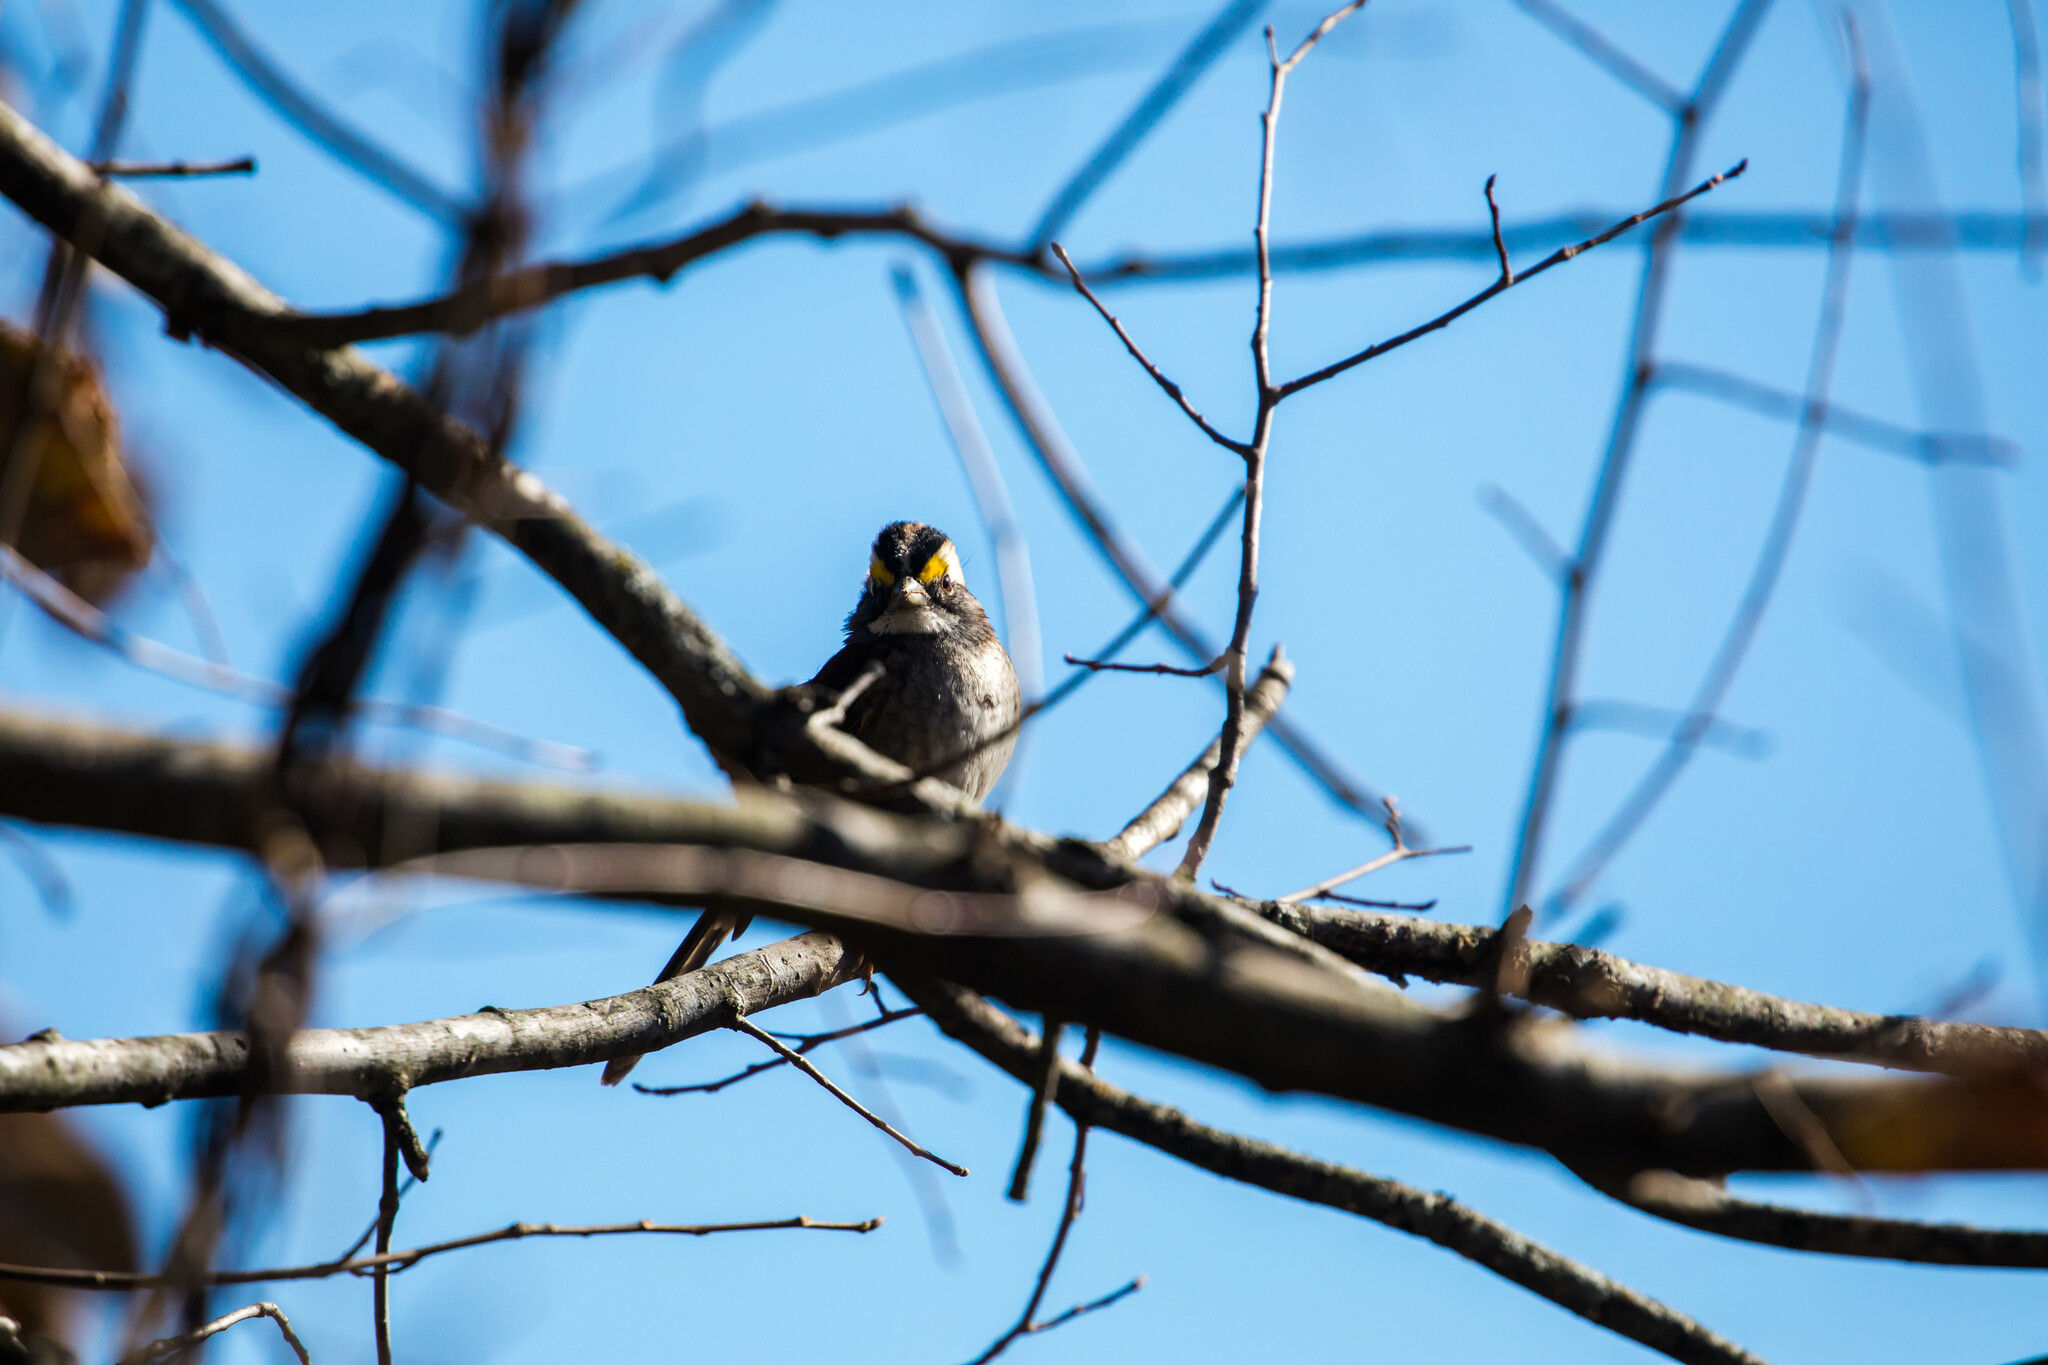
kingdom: Animalia
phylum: Chordata
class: Aves
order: Passeriformes
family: Passerellidae
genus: Zonotrichia
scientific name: Zonotrichia albicollis
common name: White-throated sparrow
